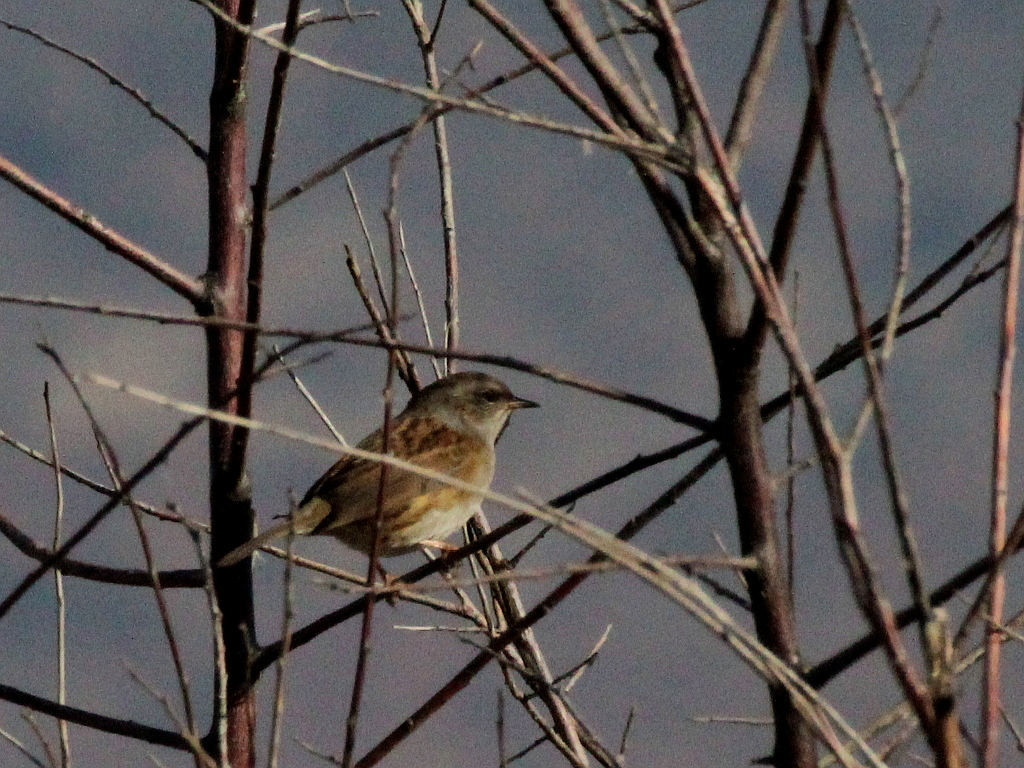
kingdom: Animalia
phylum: Chordata
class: Aves
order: Passeriformes
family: Prunellidae
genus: Prunella
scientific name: Prunella modularis
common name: Dunnock
